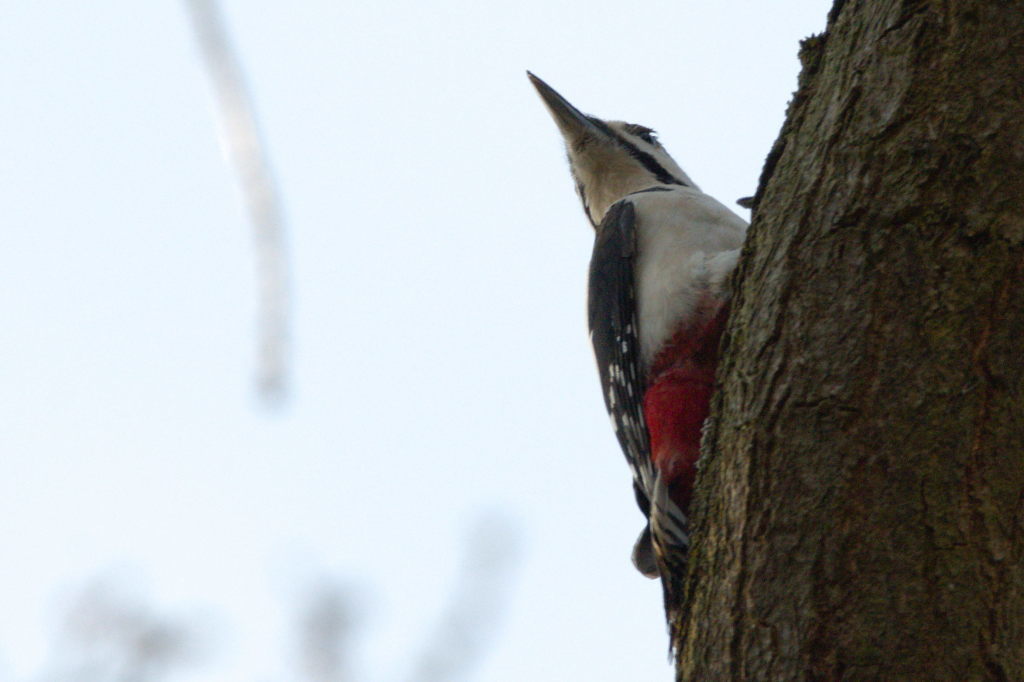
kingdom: Animalia
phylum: Chordata
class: Aves
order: Piciformes
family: Picidae
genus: Dendrocopos
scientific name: Dendrocopos major
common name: Great spotted woodpecker
